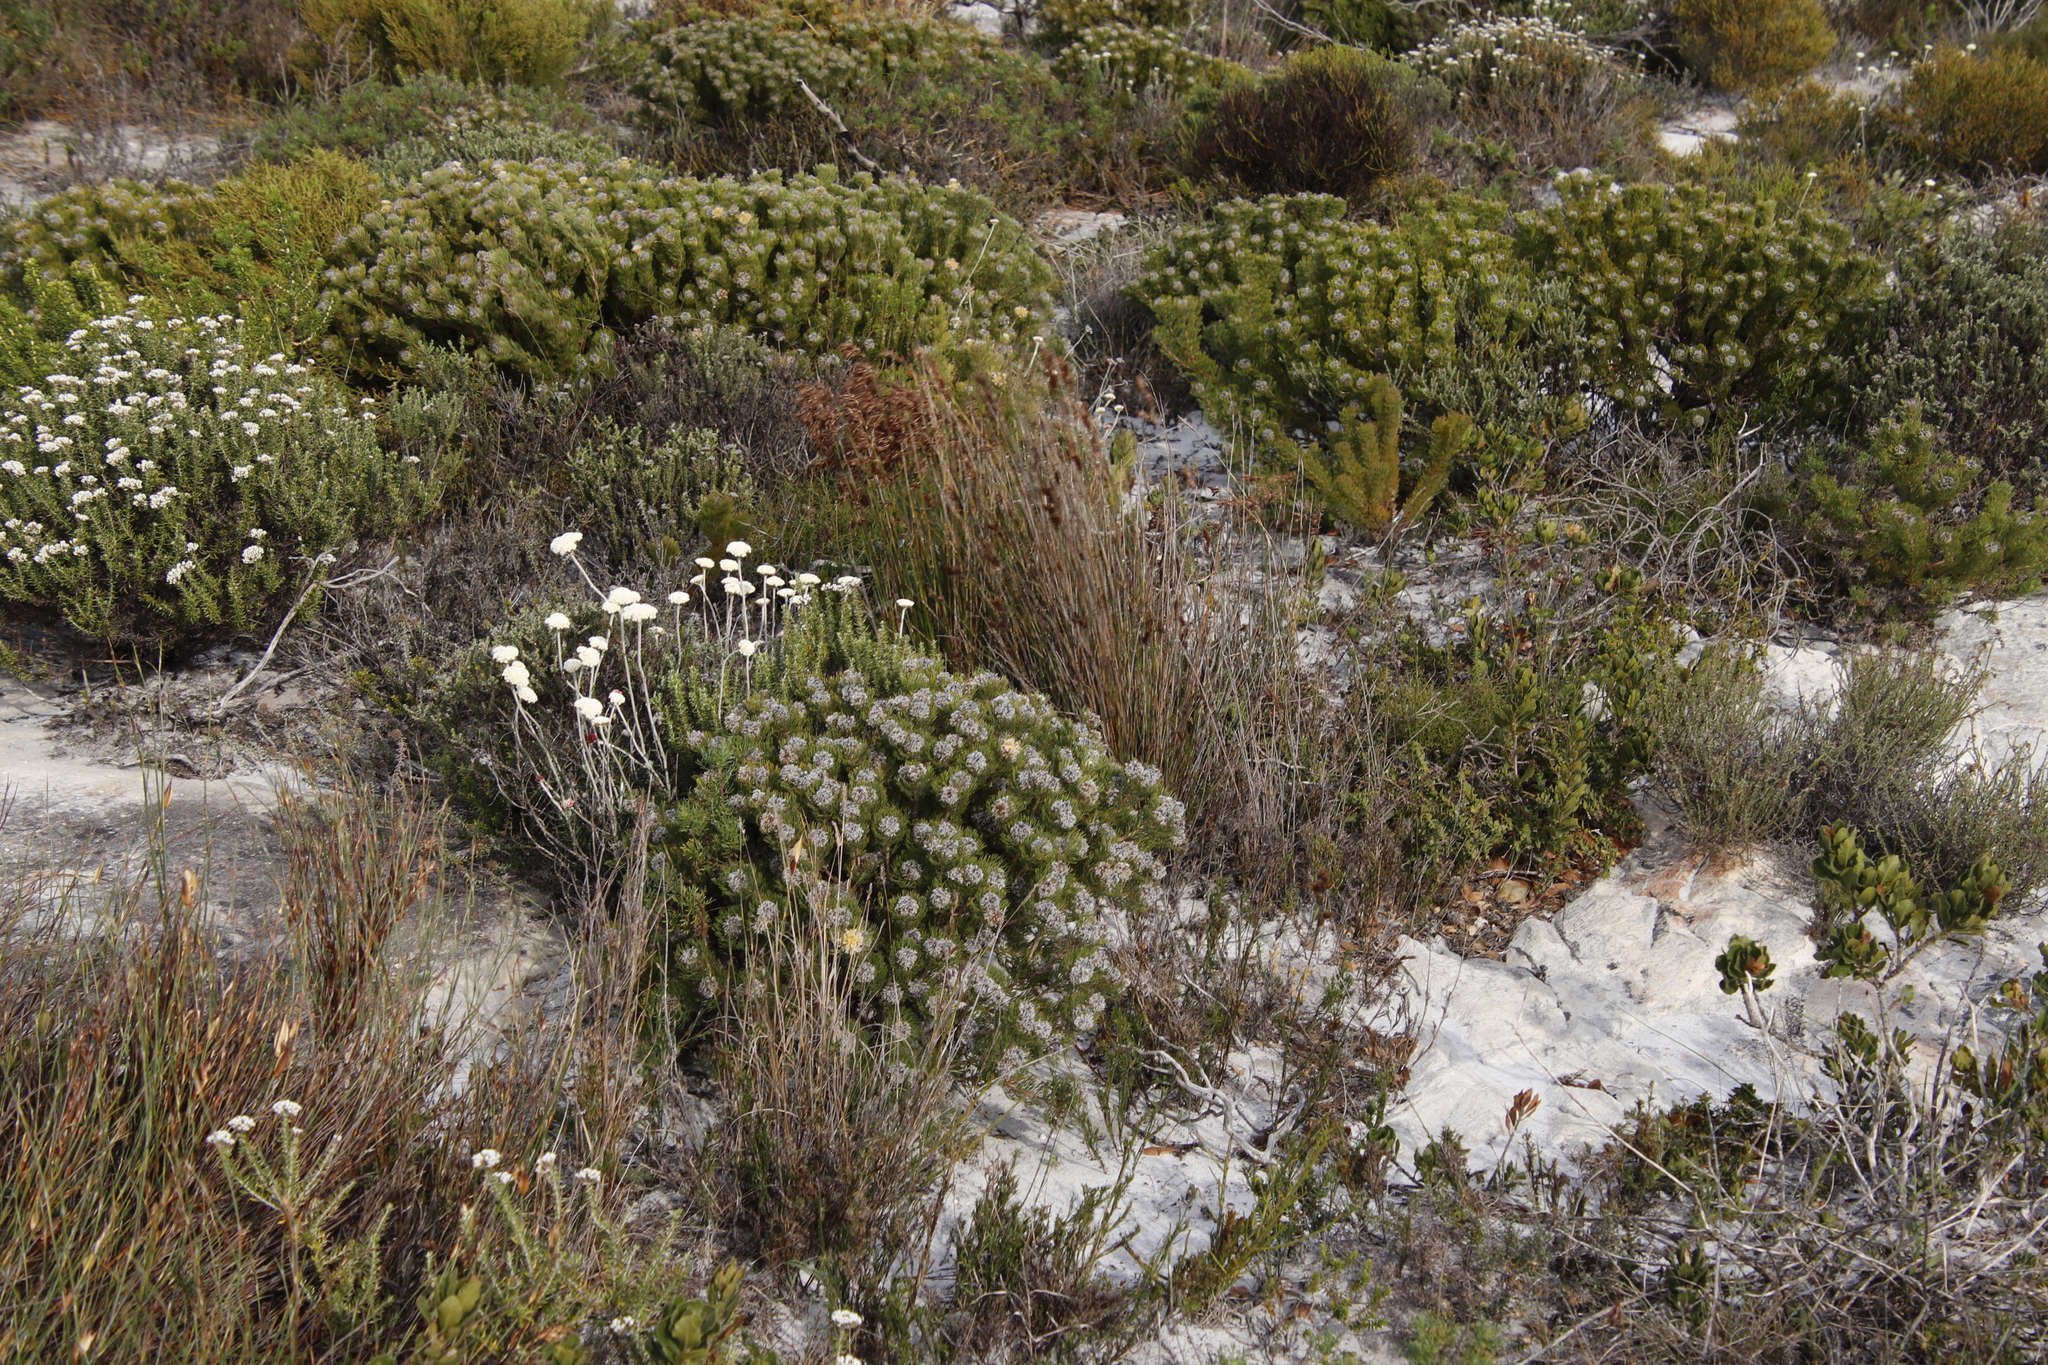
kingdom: Plantae
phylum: Tracheophyta
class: Magnoliopsida
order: Proteales
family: Proteaceae
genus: Serruria
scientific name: Serruria villosa
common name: Golden spiderhead
